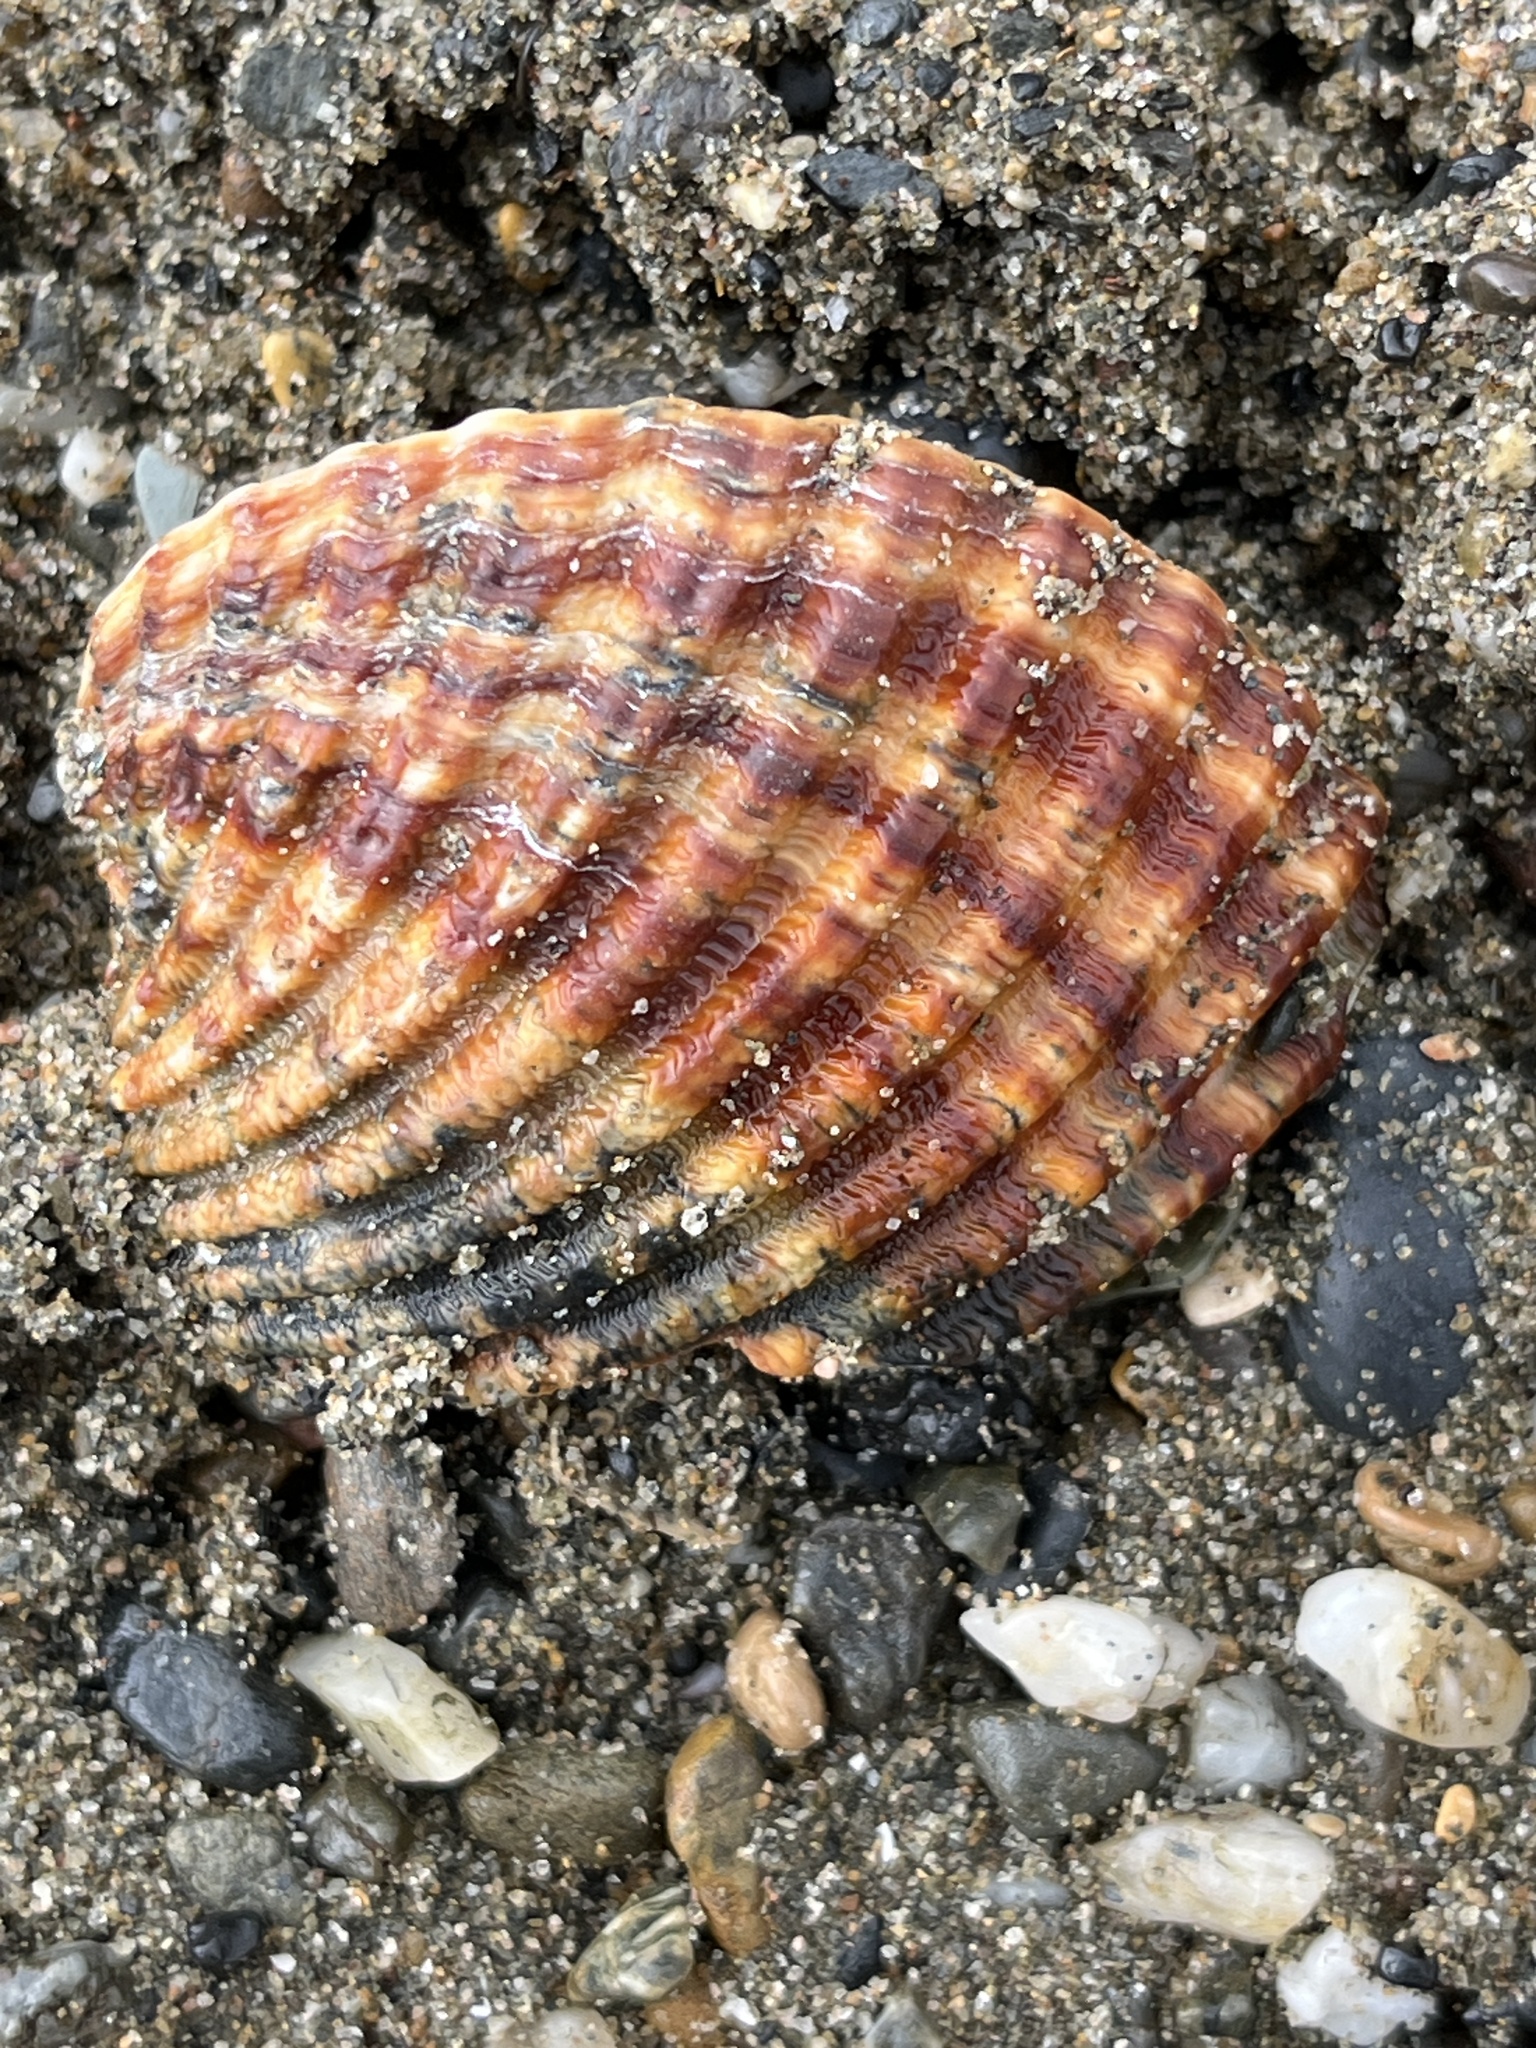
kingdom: Animalia
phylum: Mollusca
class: Bivalvia
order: Cardiida
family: Cardiidae
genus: Acanthocardia
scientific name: Acanthocardia tuberculata
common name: Rough cockle
